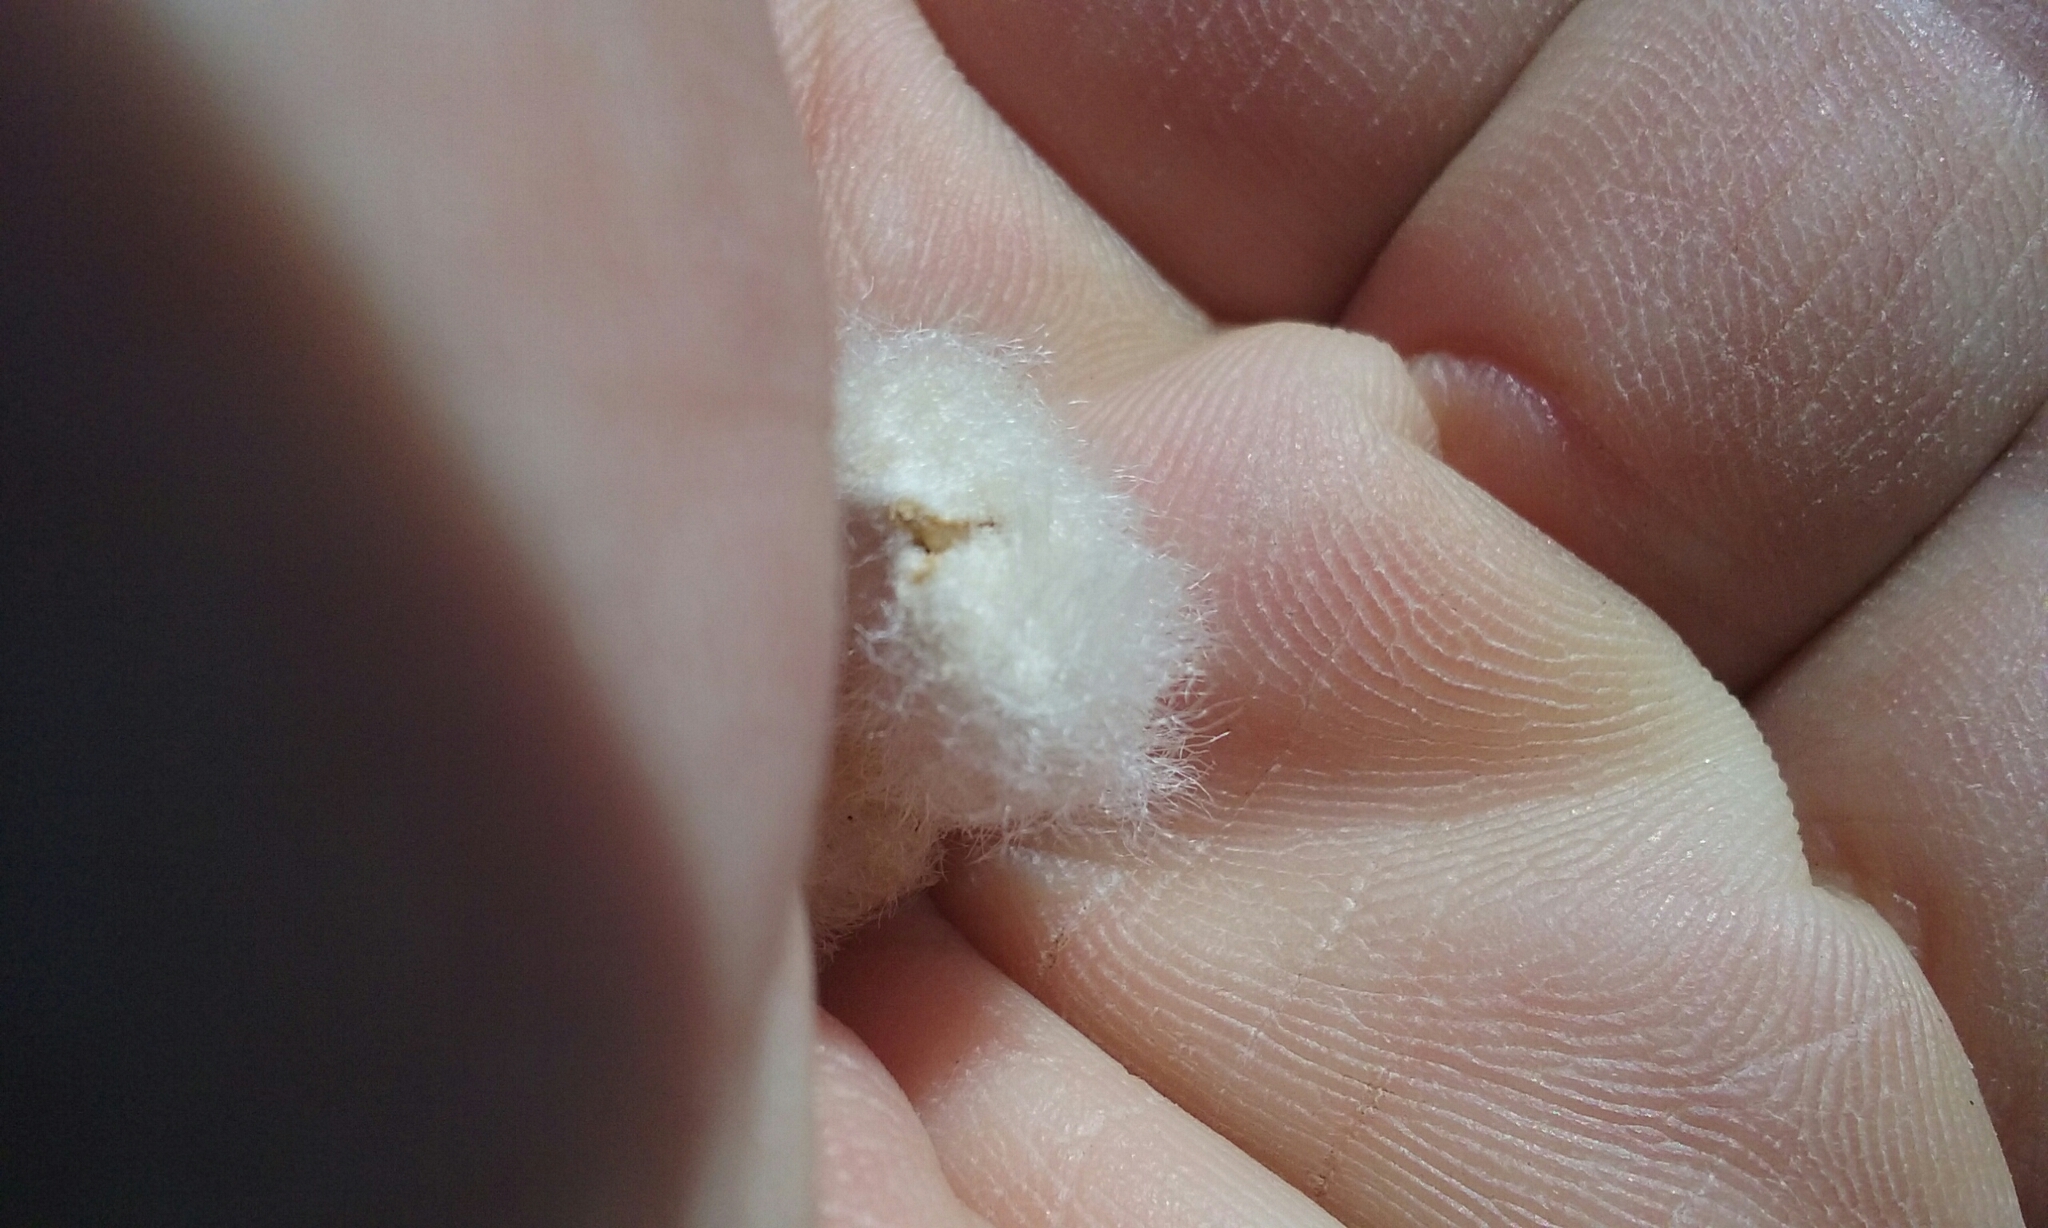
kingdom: Plantae
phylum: Tracheophyta
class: Magnoliopsida
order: Fabales
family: Fabaceae
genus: Astragalus
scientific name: Astragalus purshii
